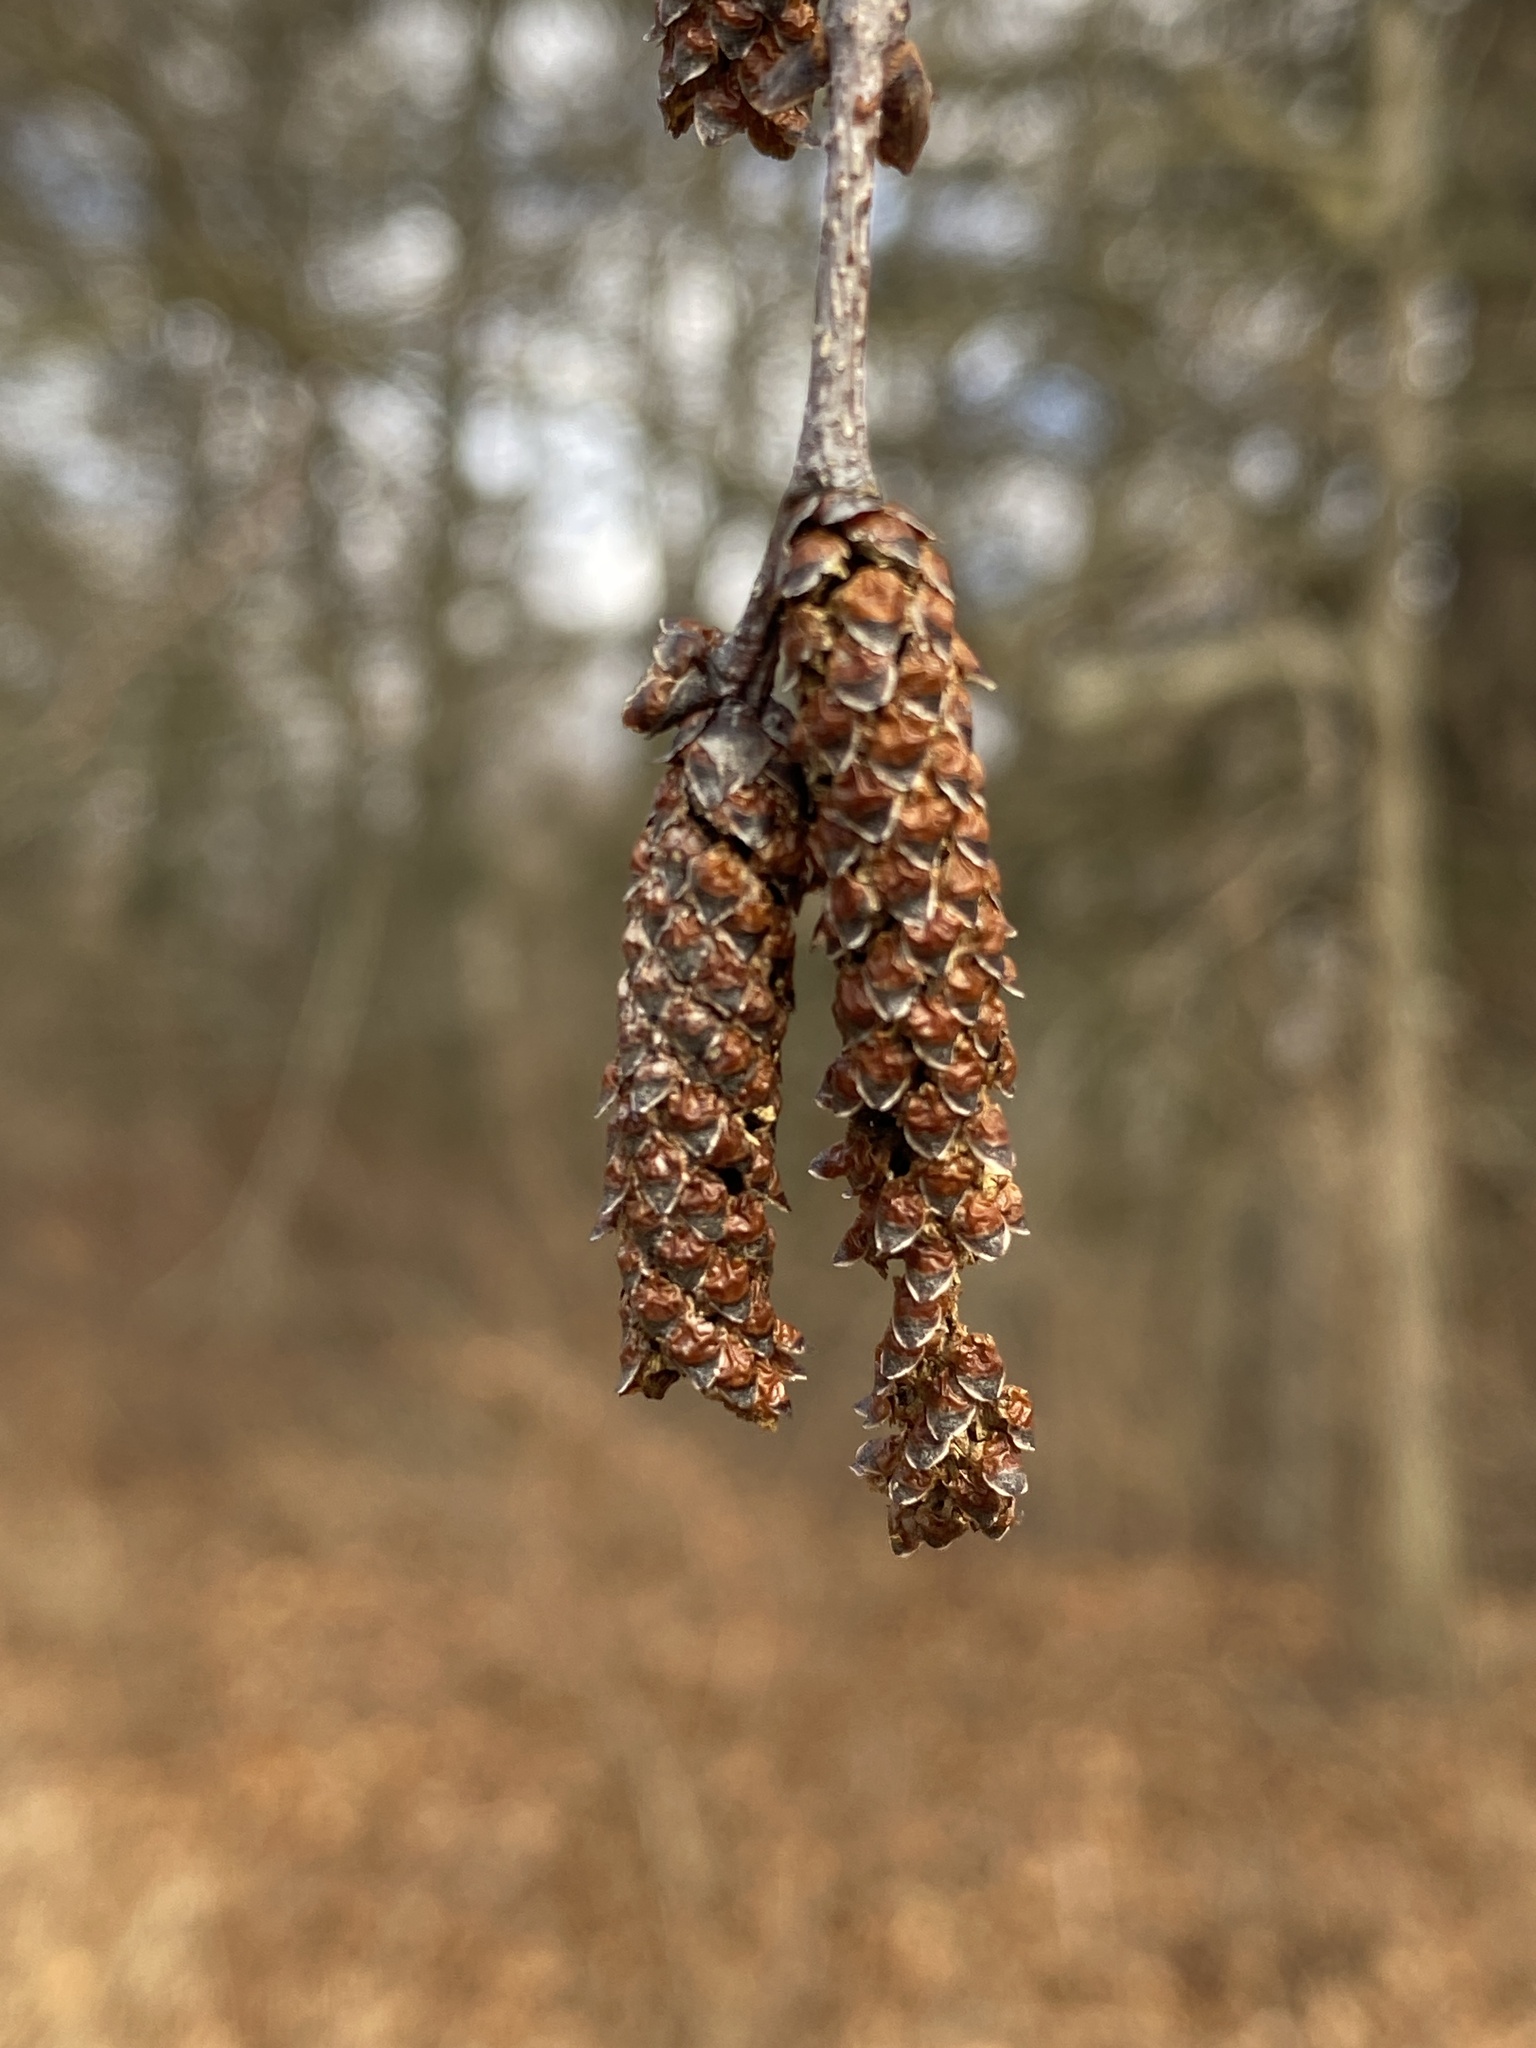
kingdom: Plantae
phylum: Tracheophyta
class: Magnoliopsida
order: Fagales
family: Betulaceae
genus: Betula
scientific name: Betula lenta
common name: Black birch
